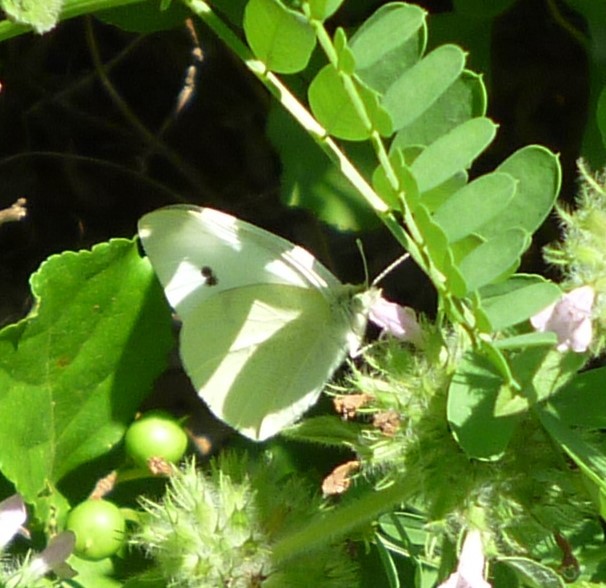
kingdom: Animalia
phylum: Arthropoda
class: Insecta
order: Lepidoptera
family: Pieridae
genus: Pieris
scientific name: Pieris rapae
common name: Small white
